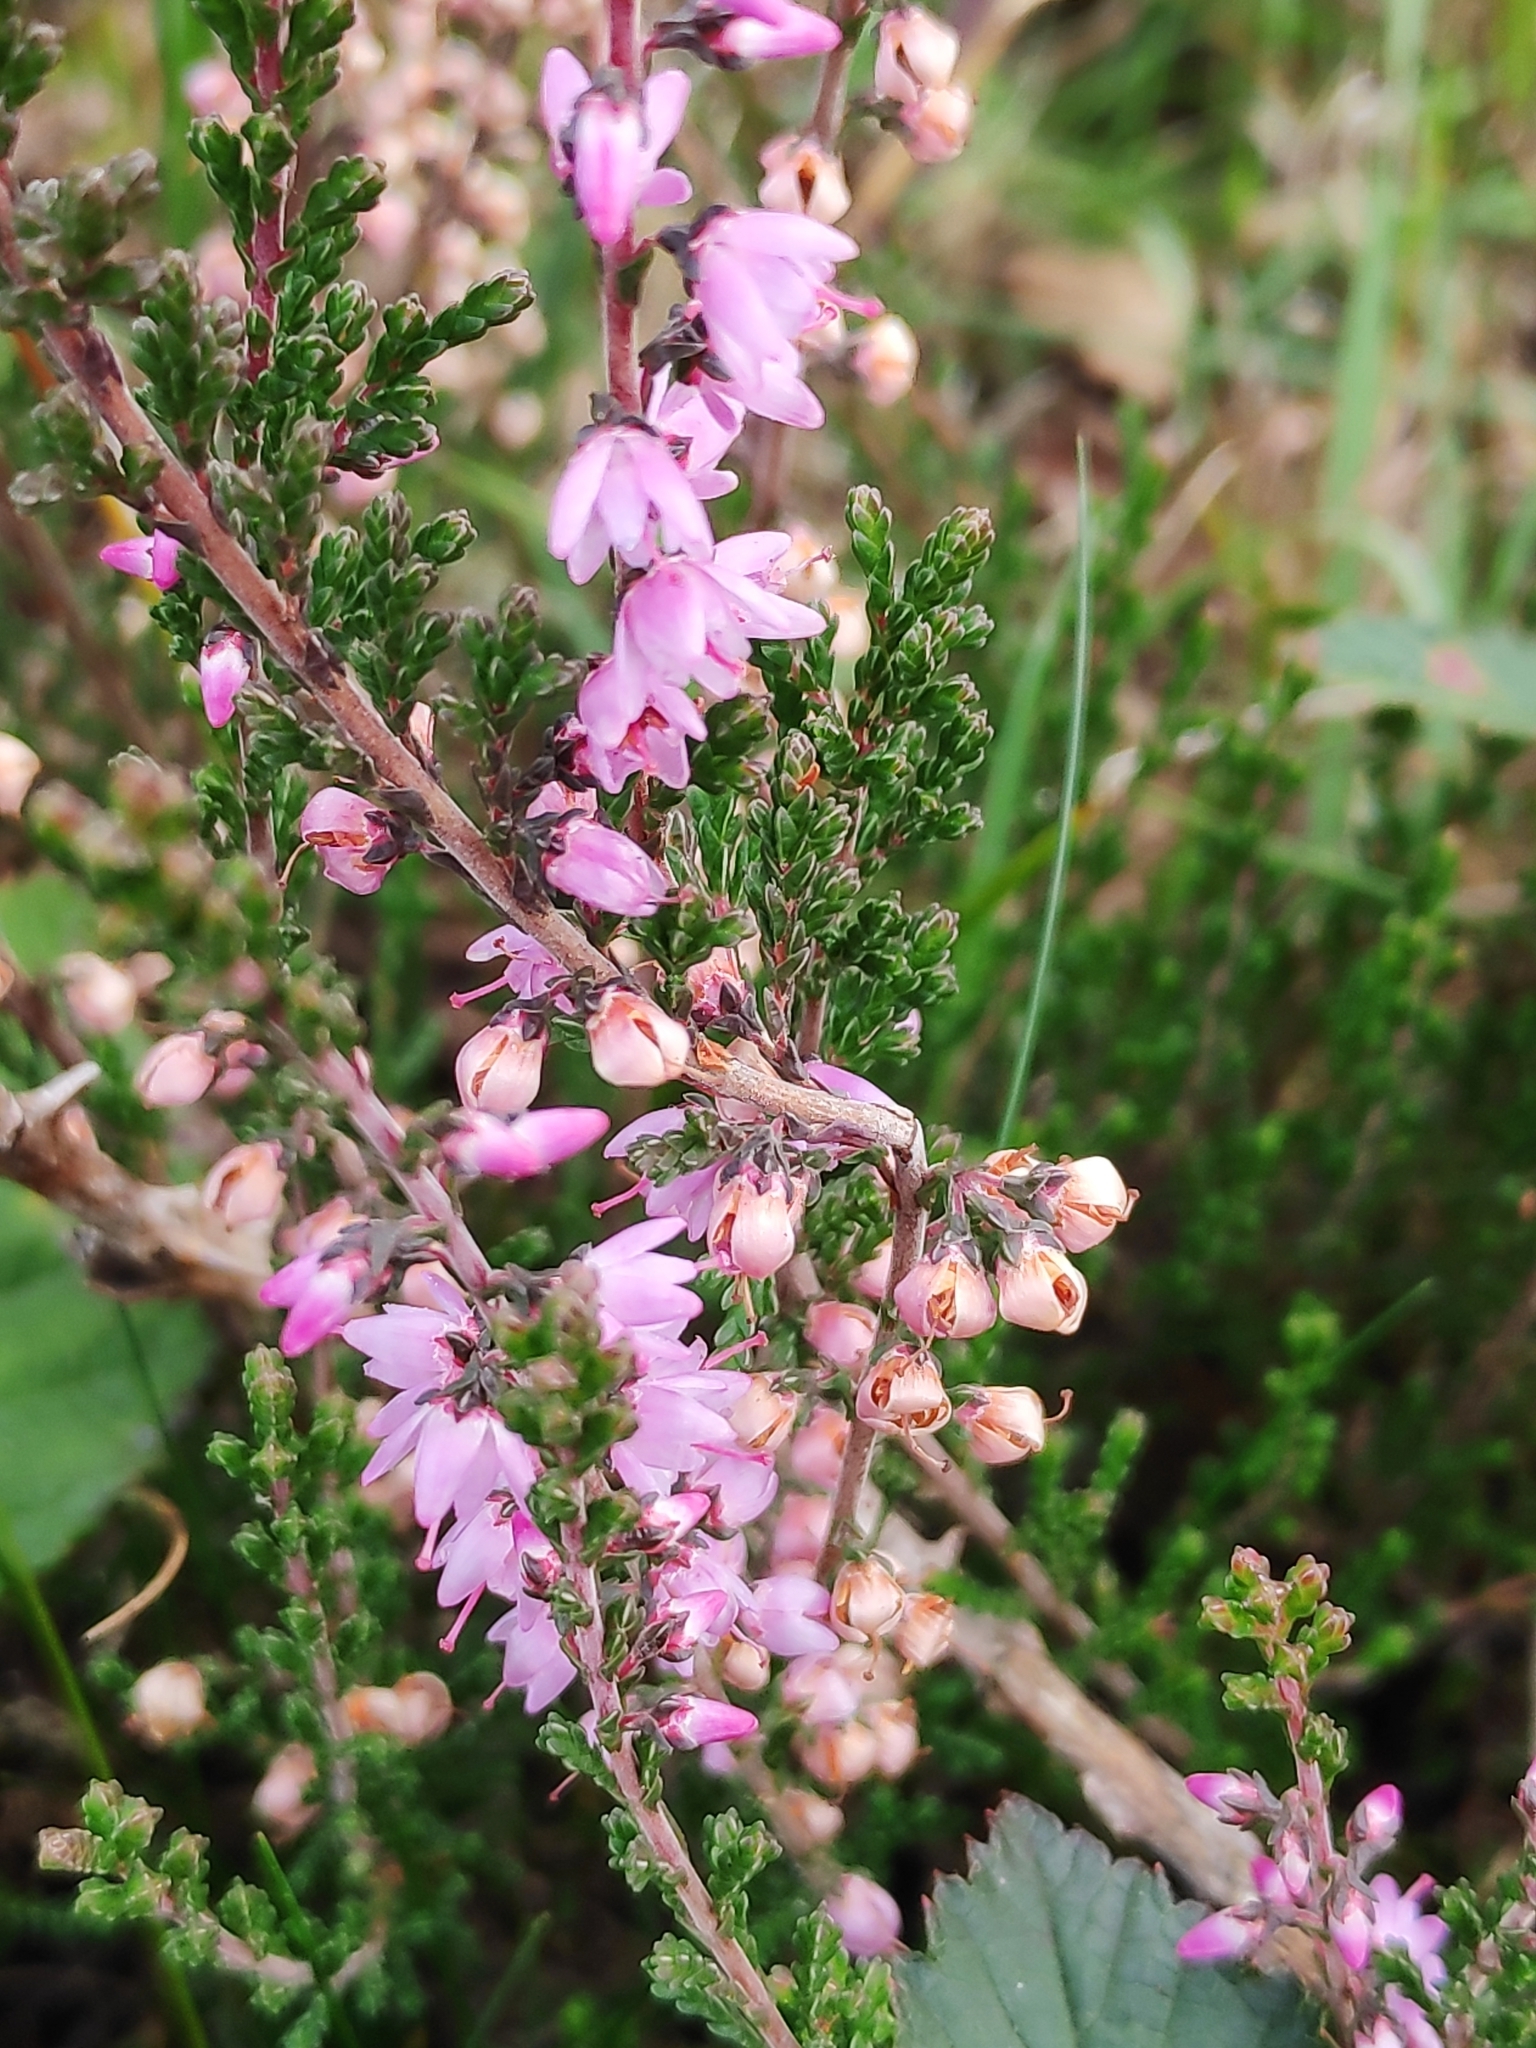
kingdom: Plantae
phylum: Tracheophyta
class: Magnoliopsida
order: Ericales
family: Ericaceae
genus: Calluna
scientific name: Calluna vulgaris
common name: Heather
